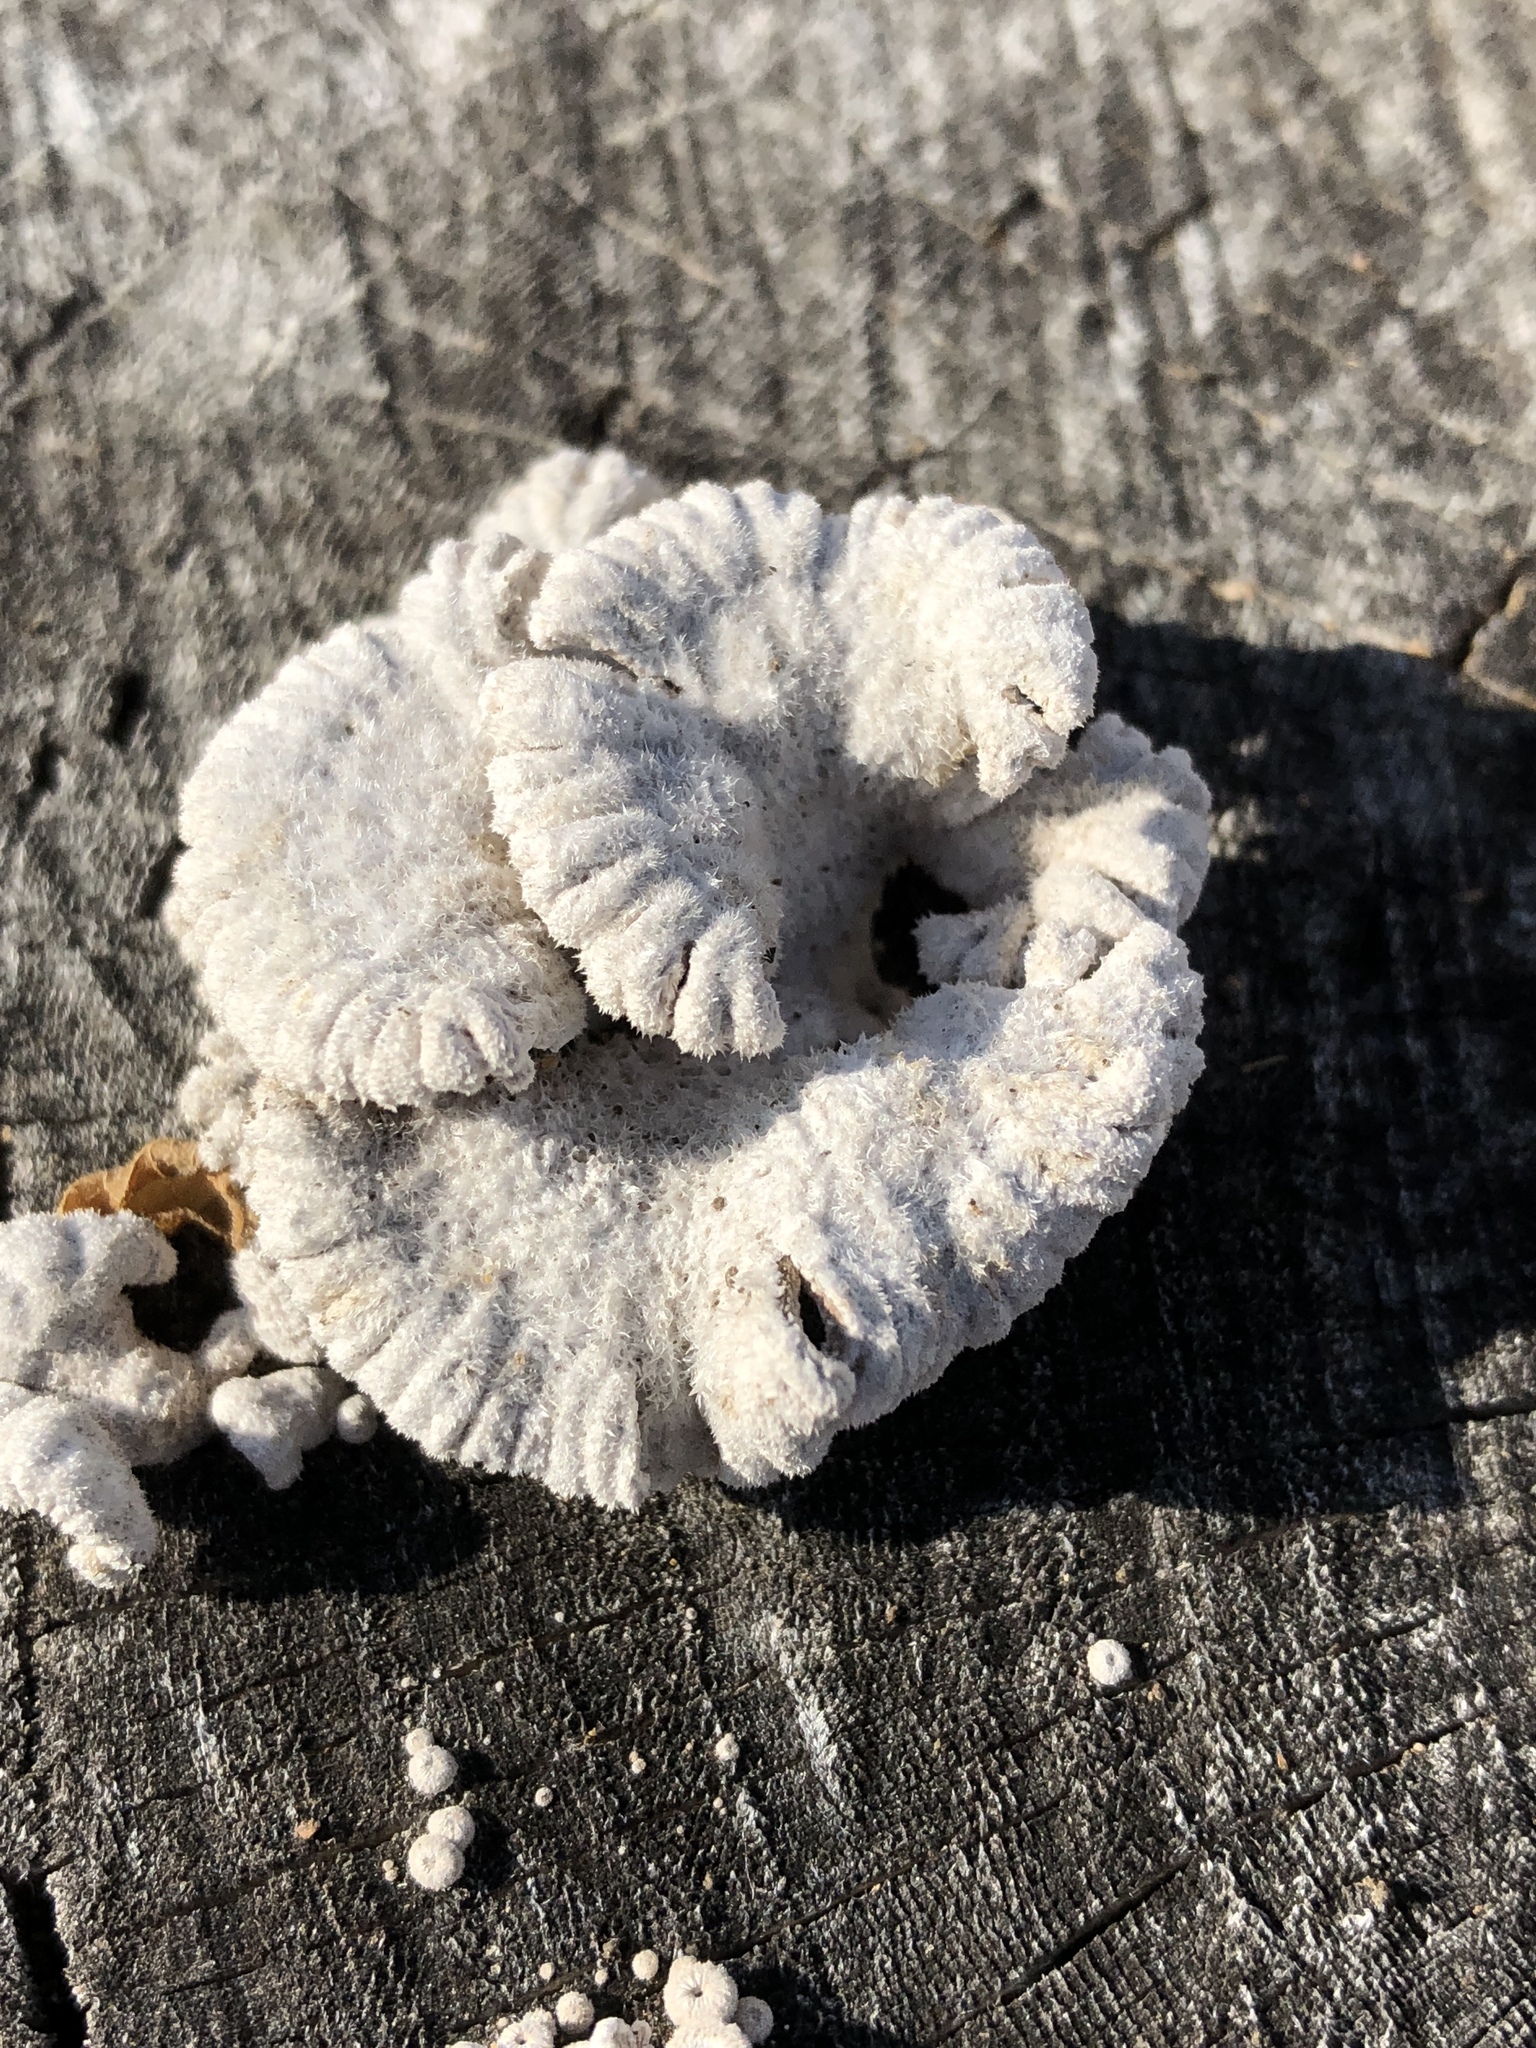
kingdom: Fungi
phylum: Basidiomycota
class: Agaricomycetes
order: Agaricales
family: Schizophyllaceae
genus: Schizophyllum
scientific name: Schizophyllum commune
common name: Common porecrust
